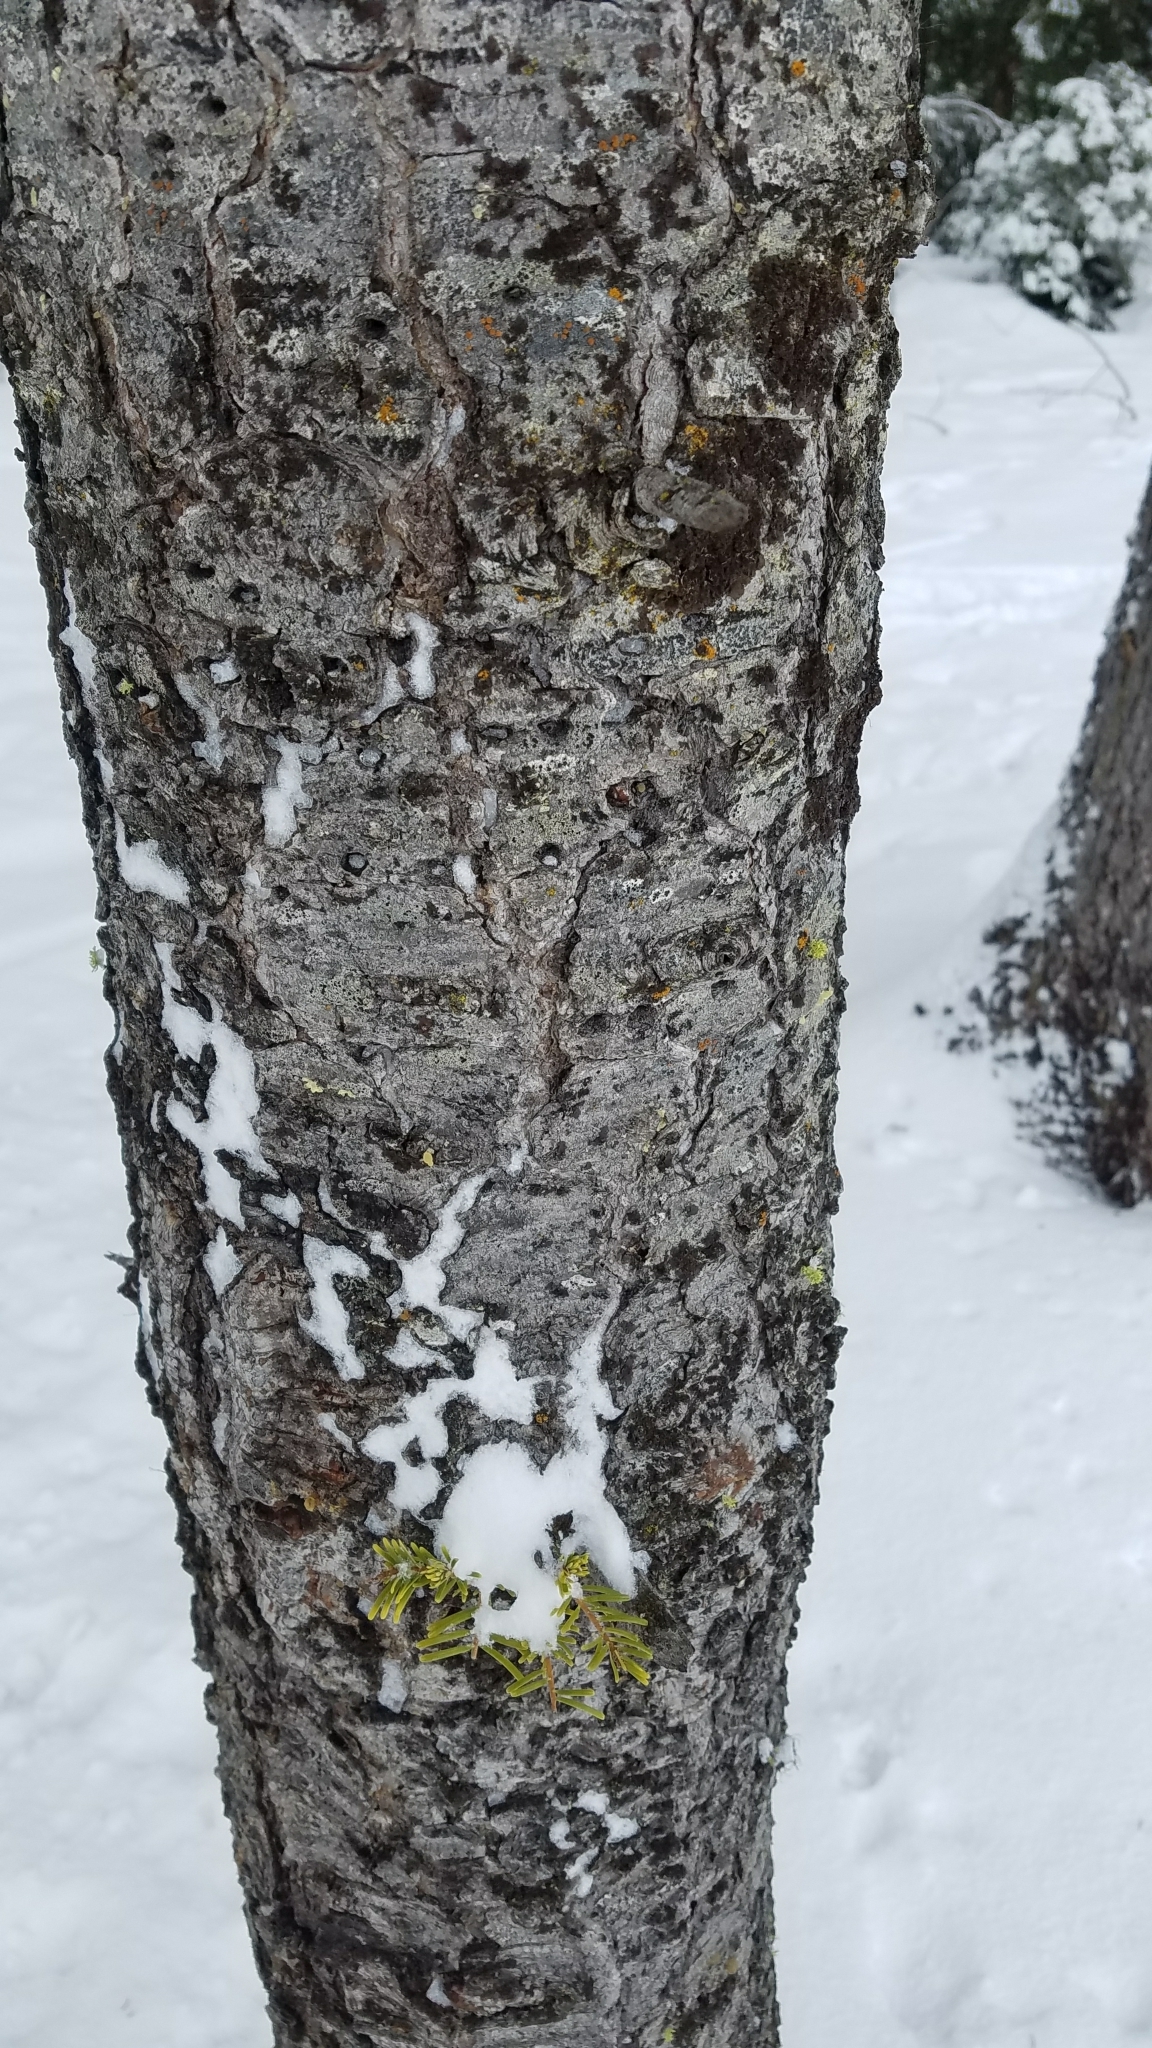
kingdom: Plantae
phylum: Tracheophyta
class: Pinopsida
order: Pinales
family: Pinaceae
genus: Abies
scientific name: Abies grandis
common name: Giant fir
